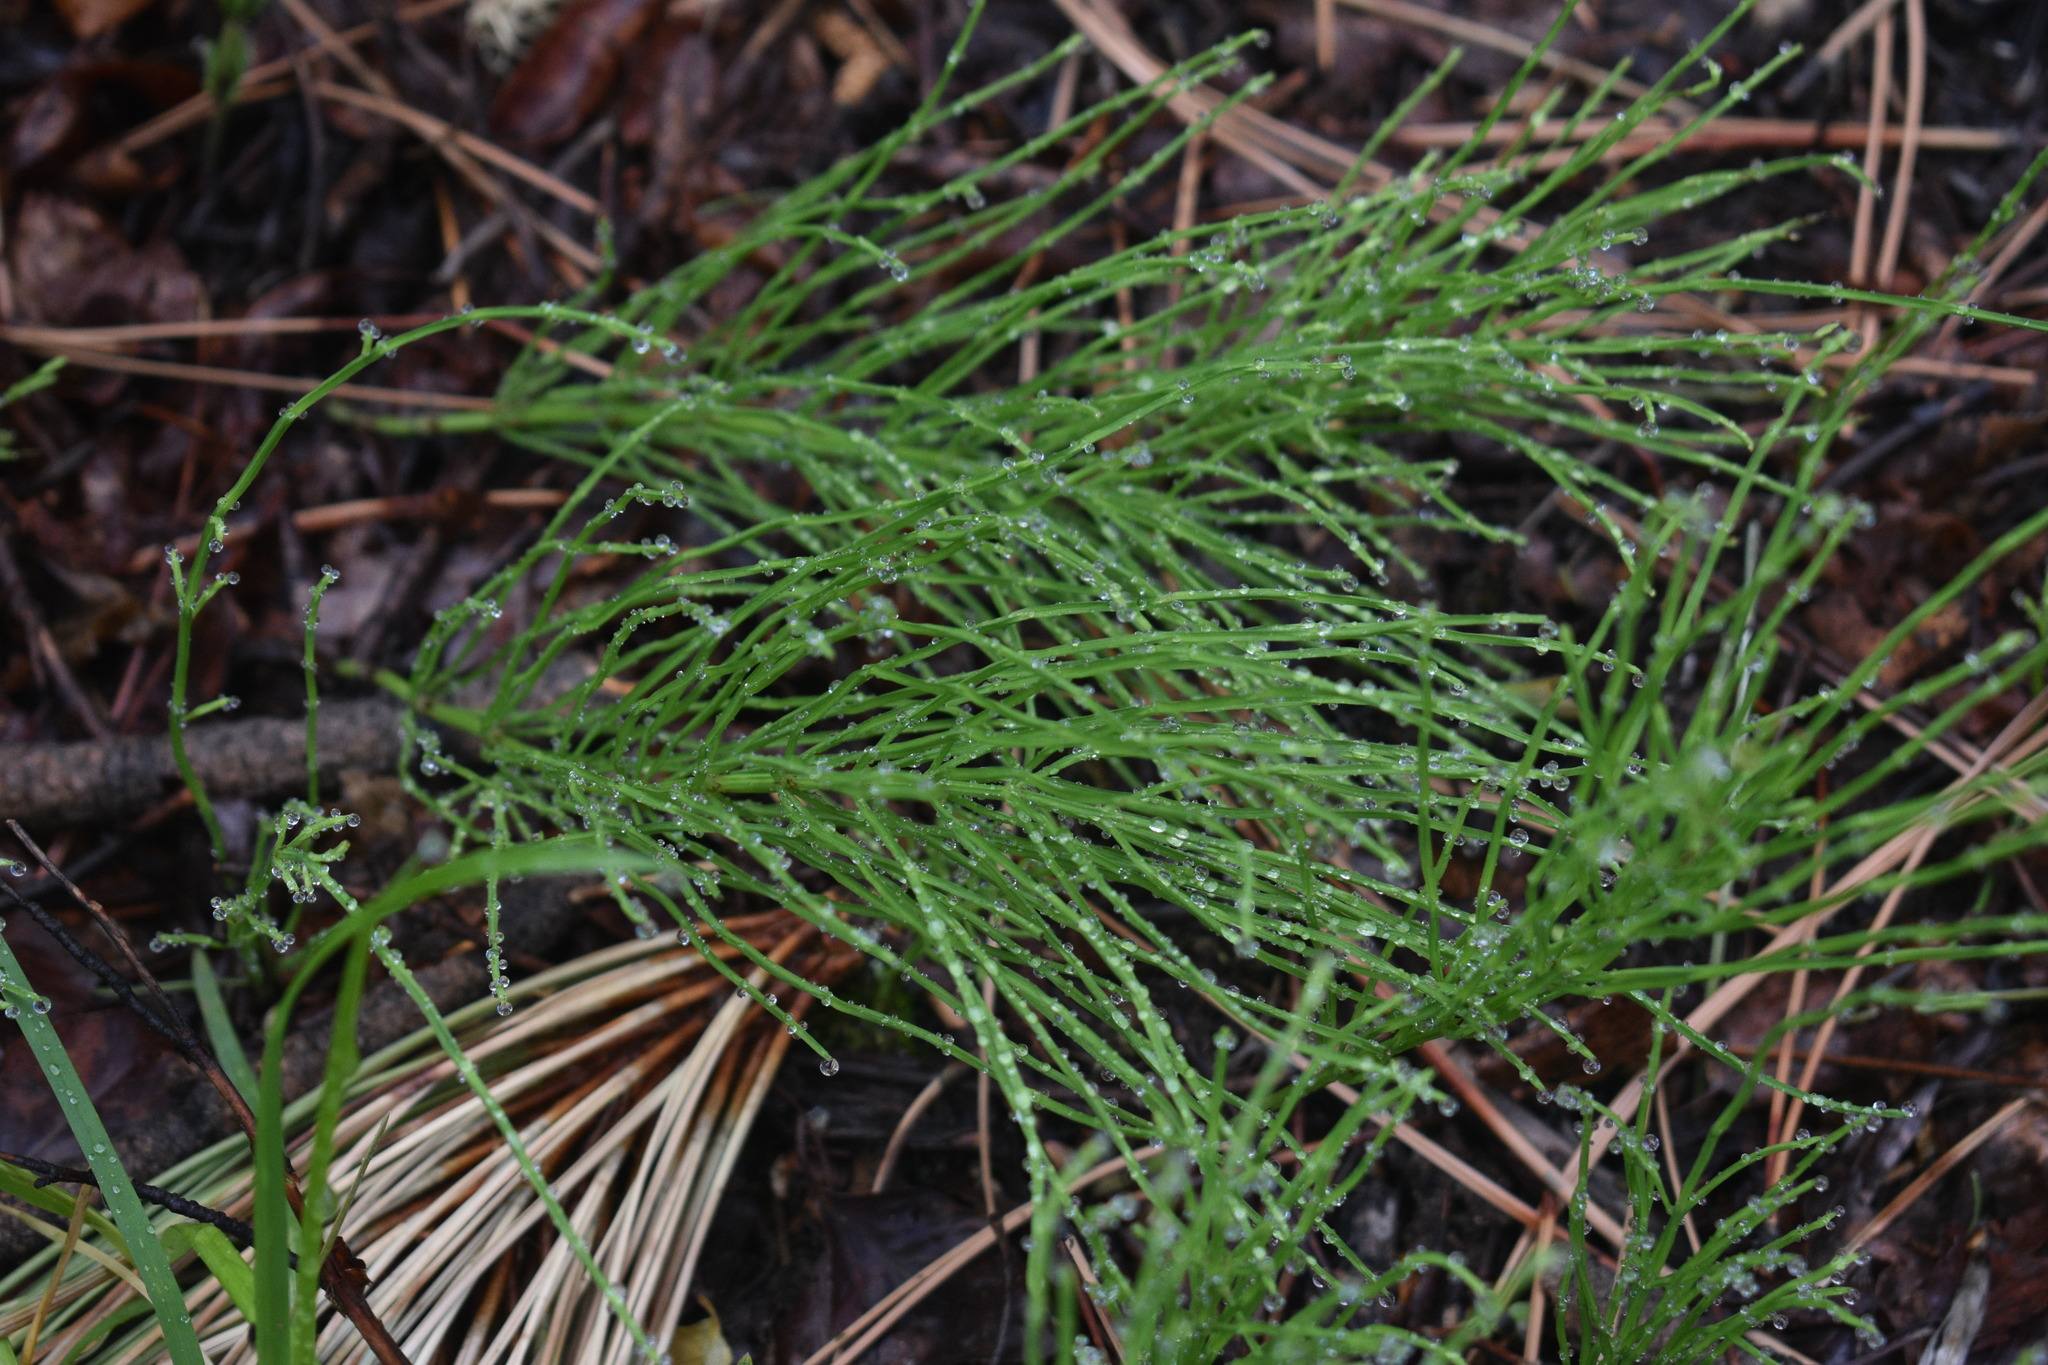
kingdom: Plantae
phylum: Tracheophyta
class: Polypodiopsida
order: Equisetales
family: Equisetaceae
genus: Equisetum
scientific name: Equisetum arvense
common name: Field horsetail
